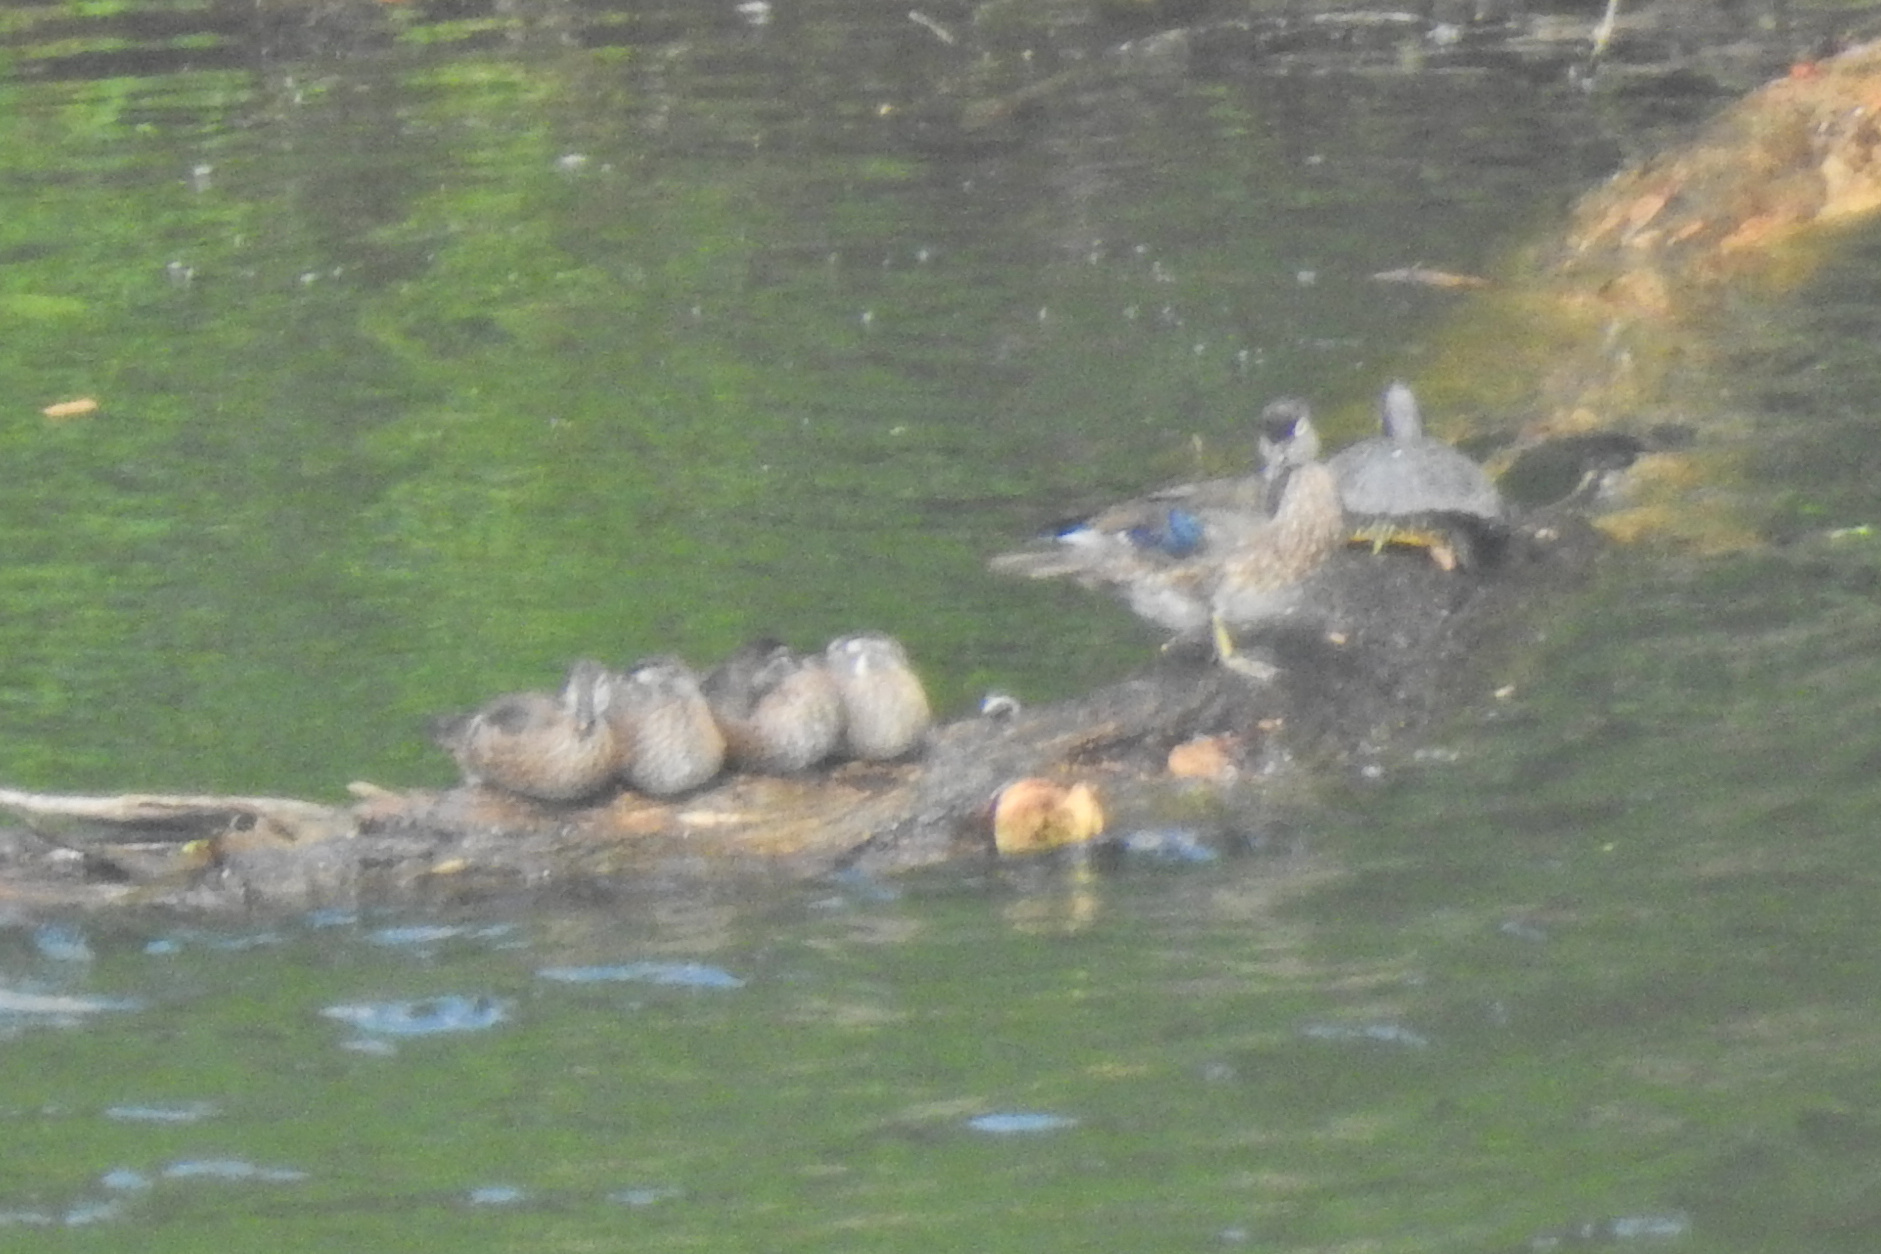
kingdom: Animalia
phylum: Chordata
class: Aves
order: Anseriformes
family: Anatidae
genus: Aix
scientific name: Aix sponsa
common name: Wood duck
